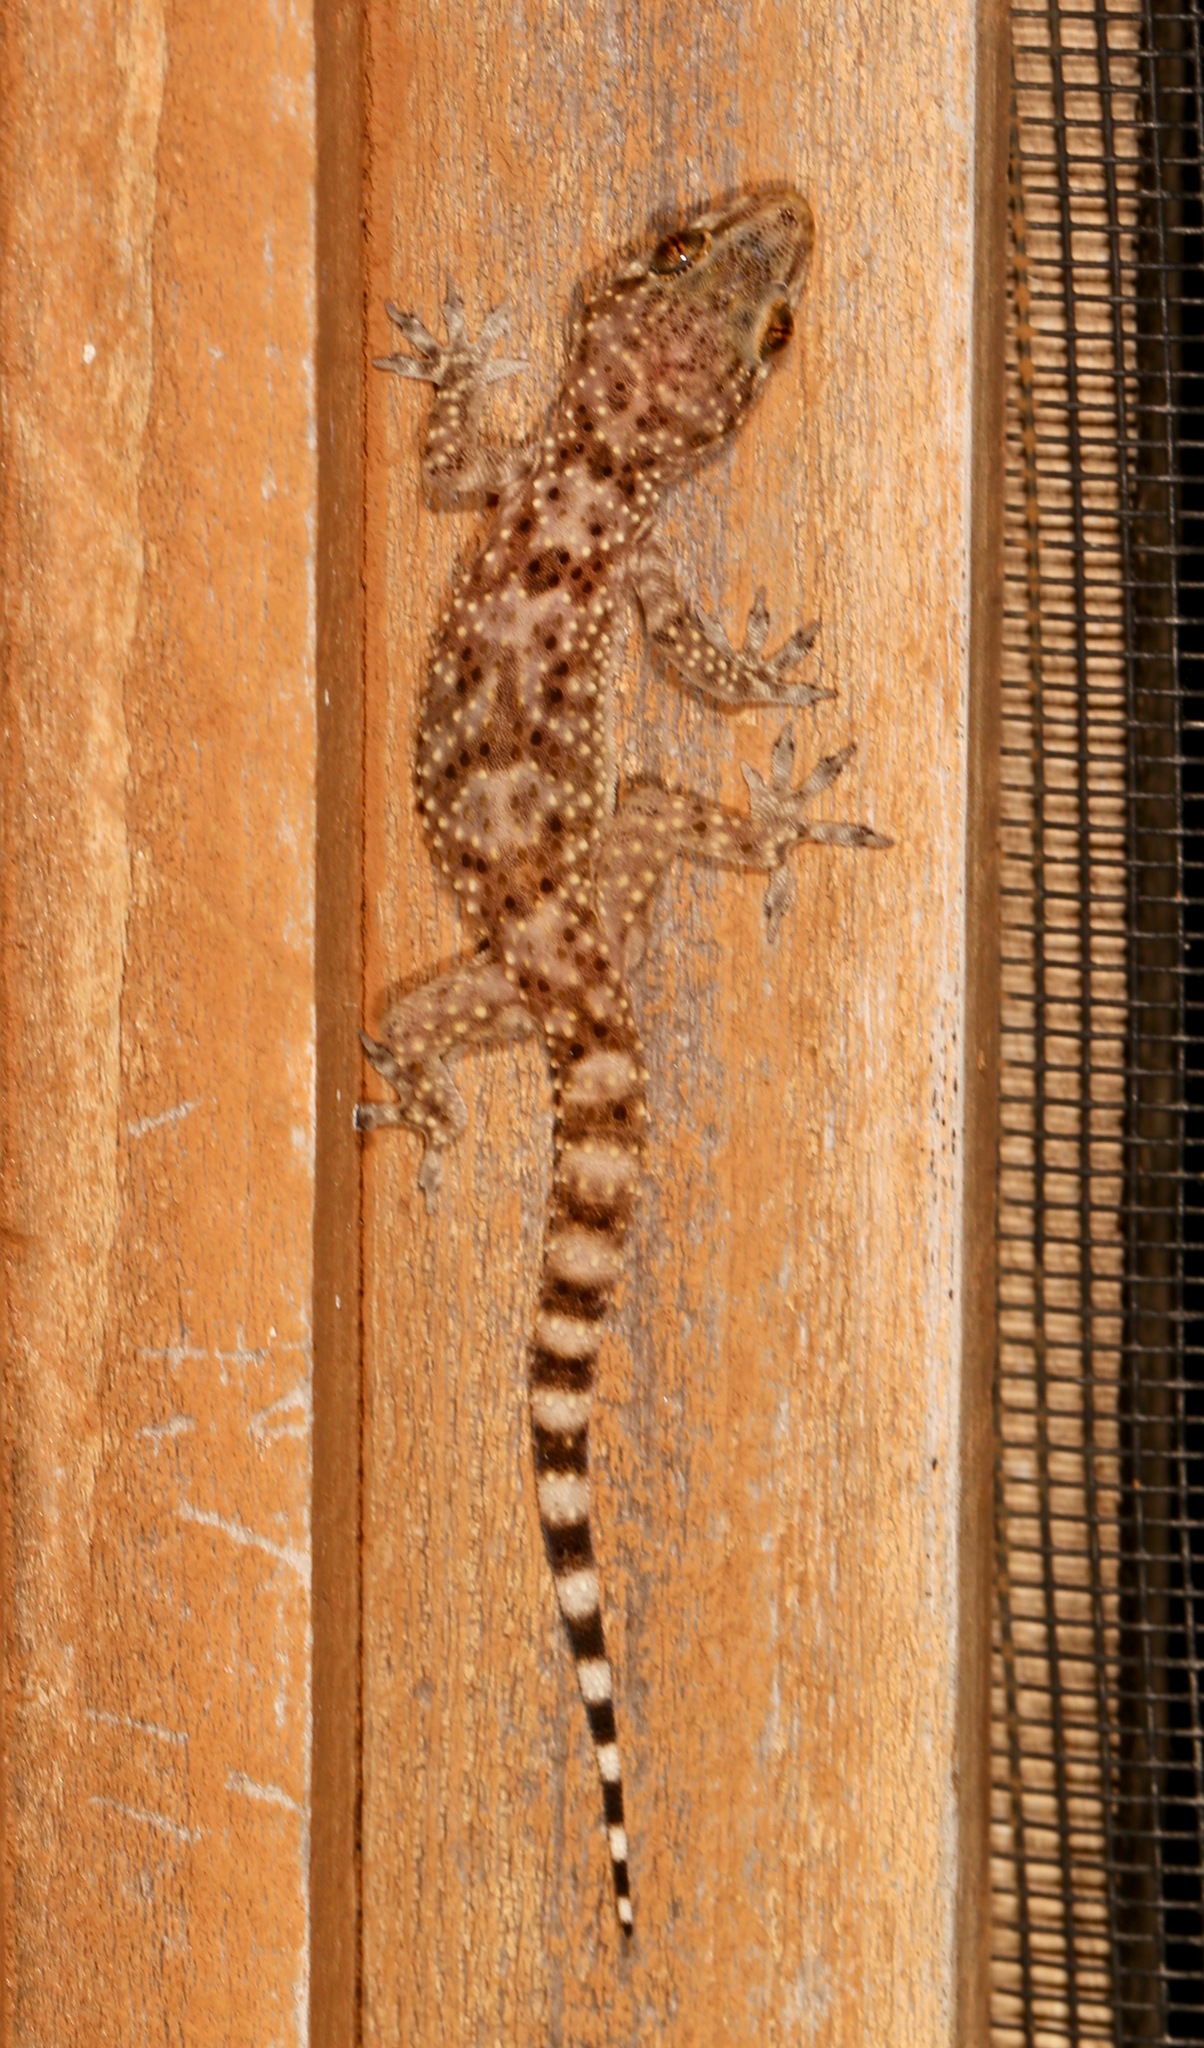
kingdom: Animalia
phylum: Chordata
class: Squamata
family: Gekkonidae
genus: Hemidactylus
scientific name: Hemidactylus turcicus
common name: Turkish gecko
